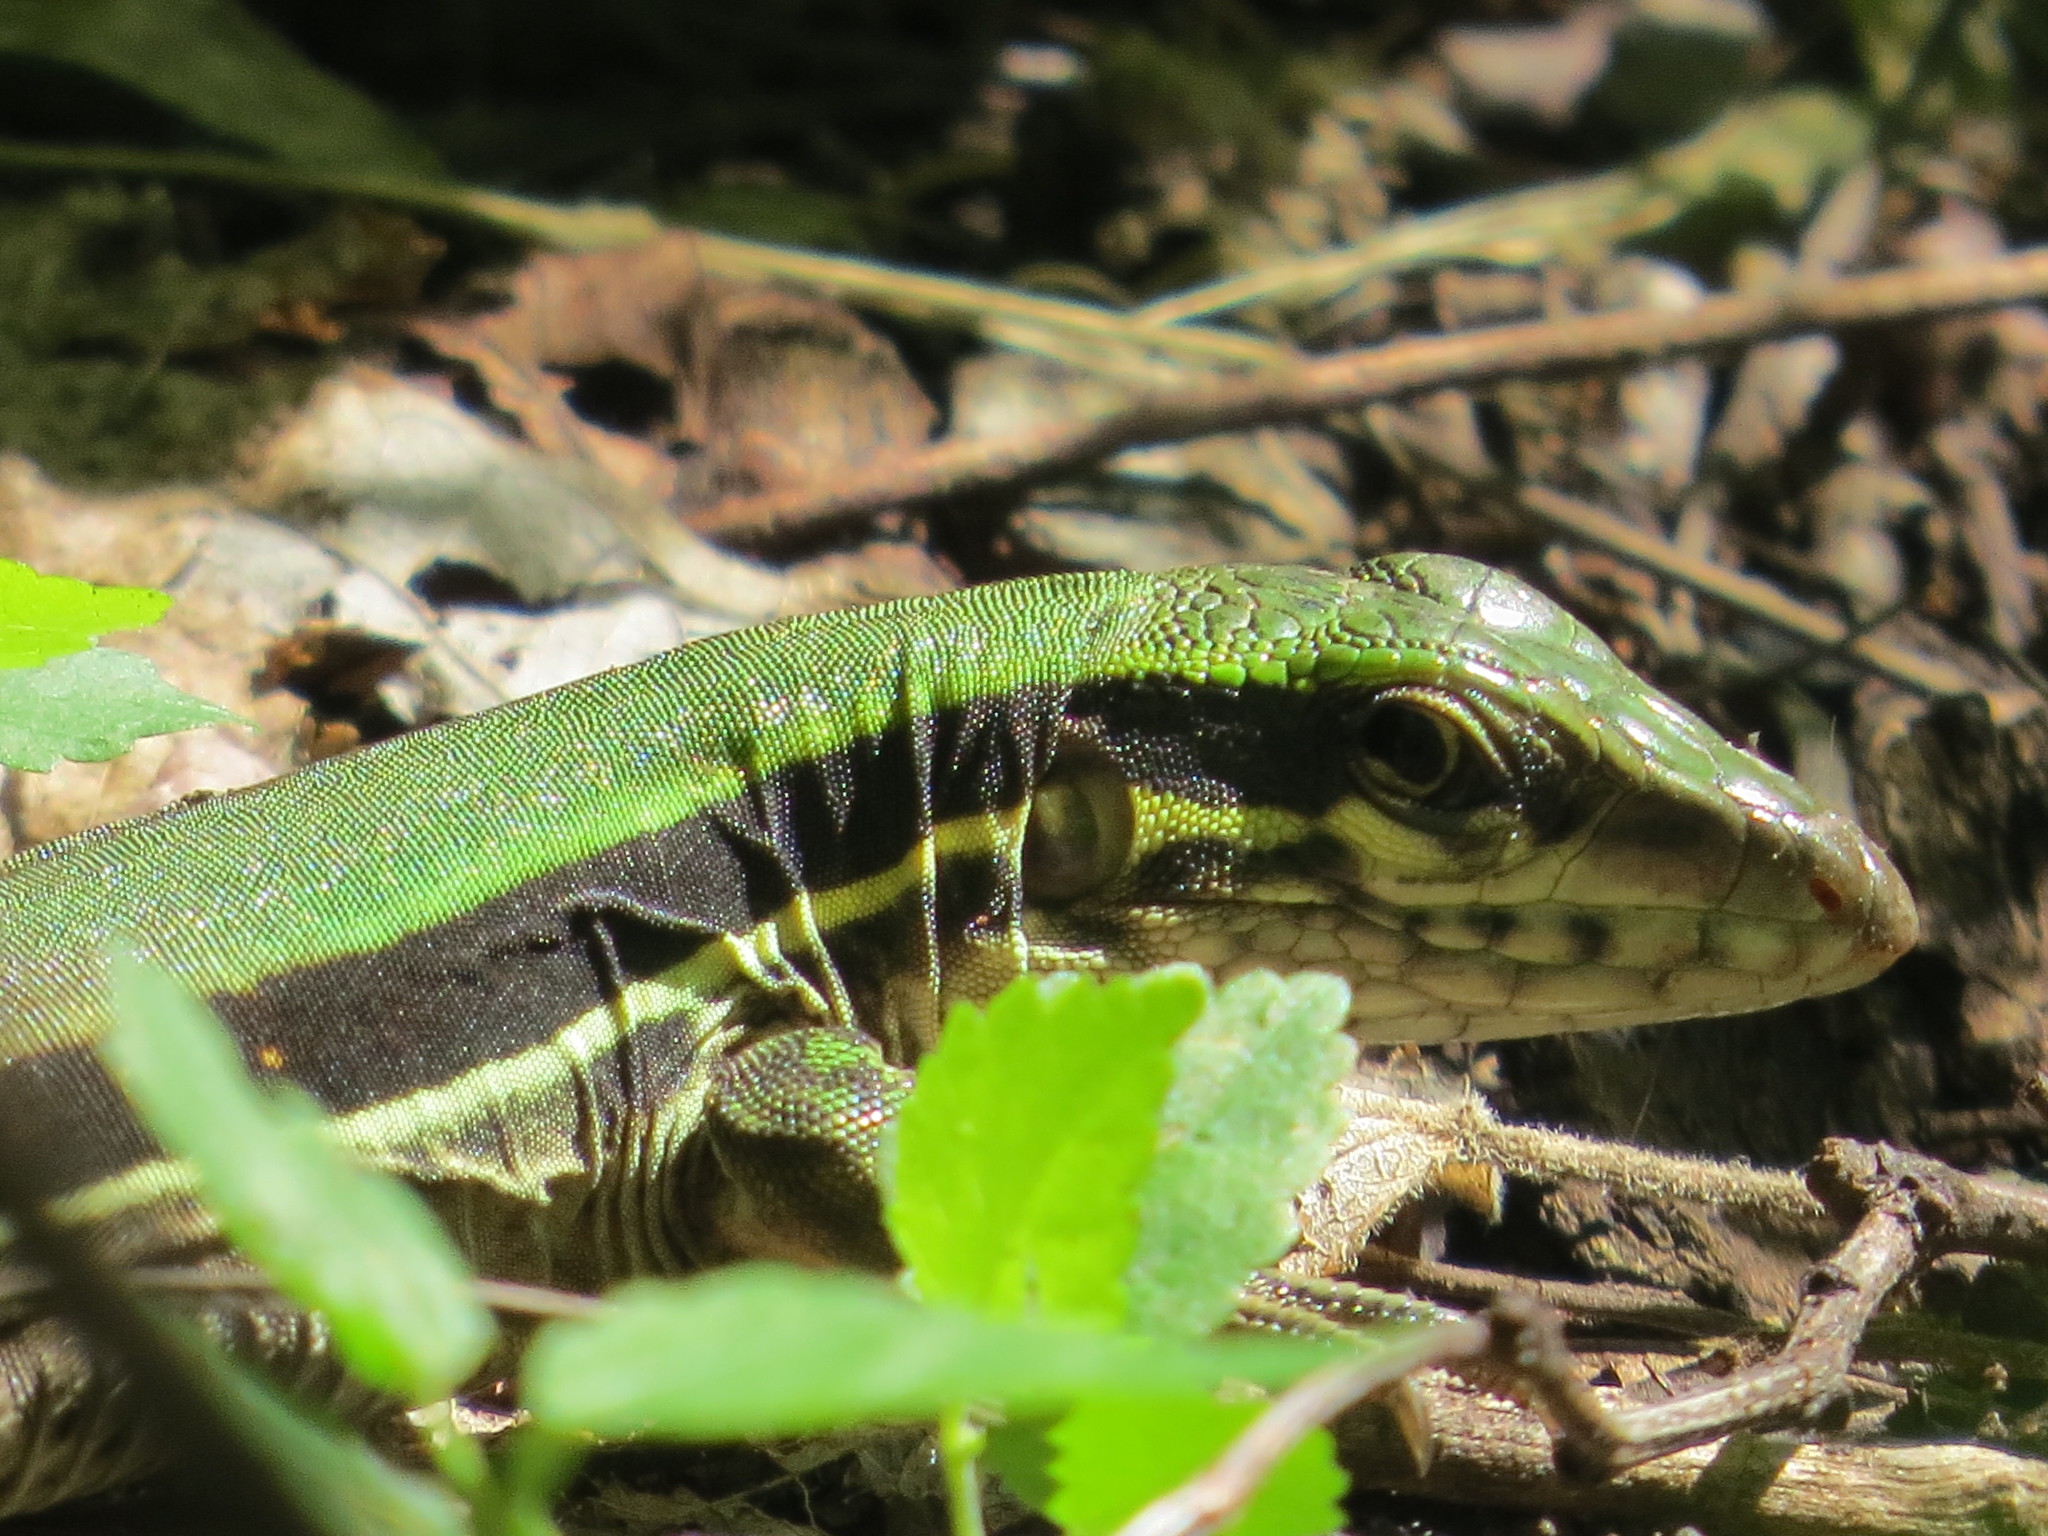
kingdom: Animalia
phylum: Chordata
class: Squamata
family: Teiidae
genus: Ameiva
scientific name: Ameiva ameiva
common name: Giant ameiva
